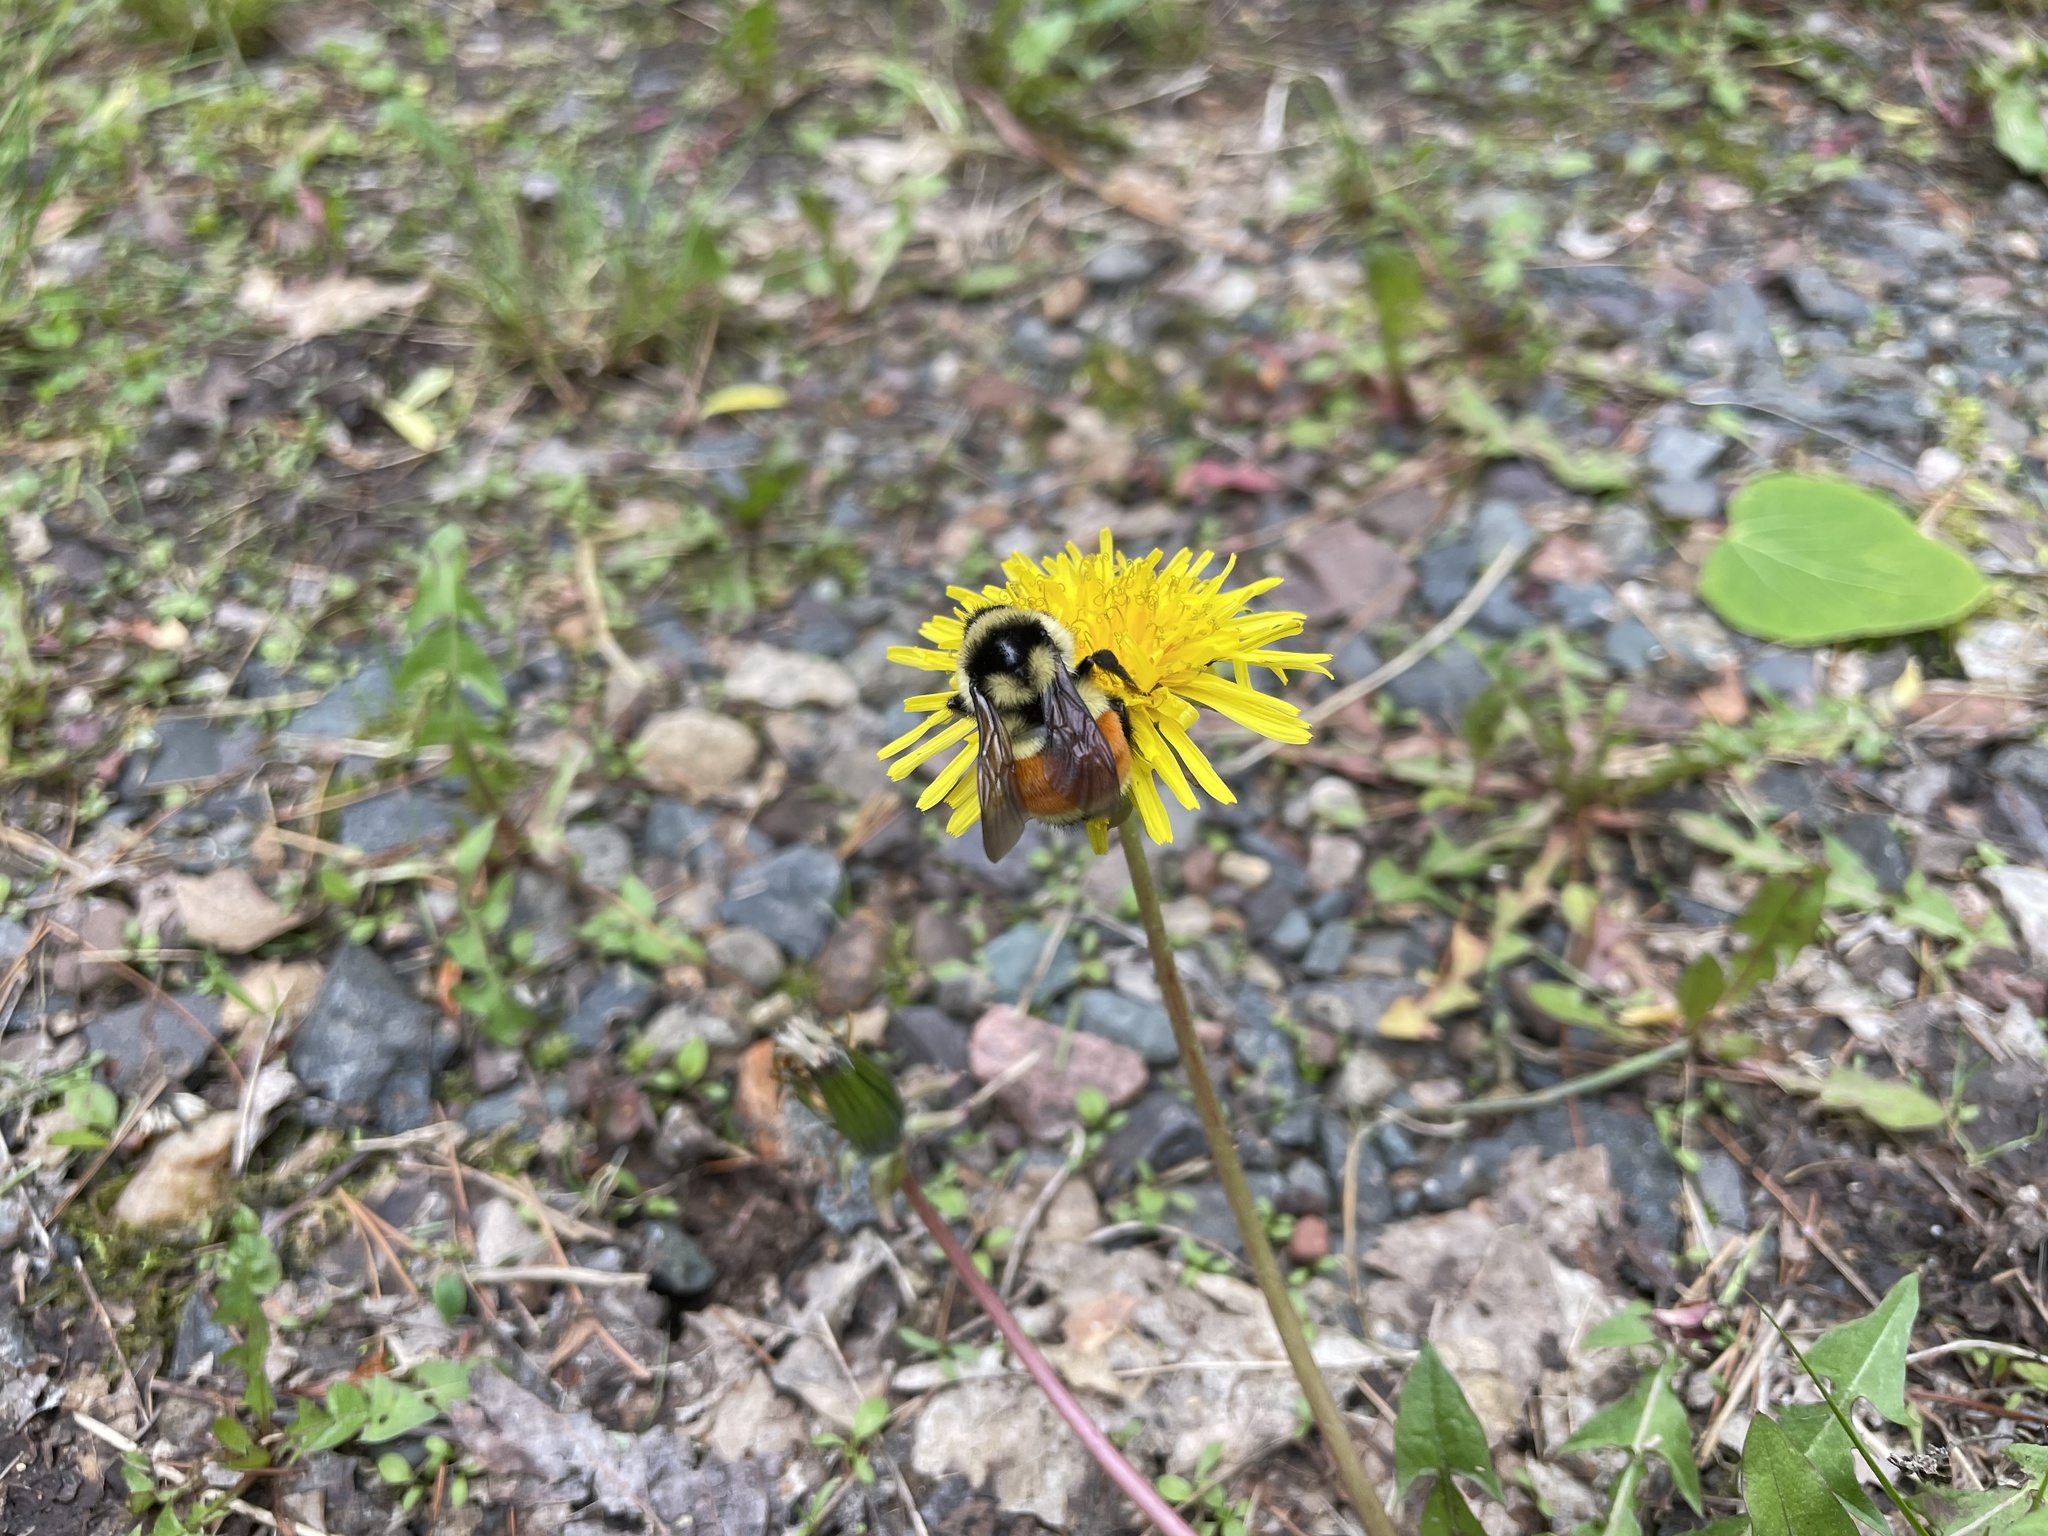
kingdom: Animalia
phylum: Arthropoda
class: Insecta
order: Hymenoptera
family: Apidae
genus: Bombus
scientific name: Bombus ternarius
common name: Tri-colored bumble bee
